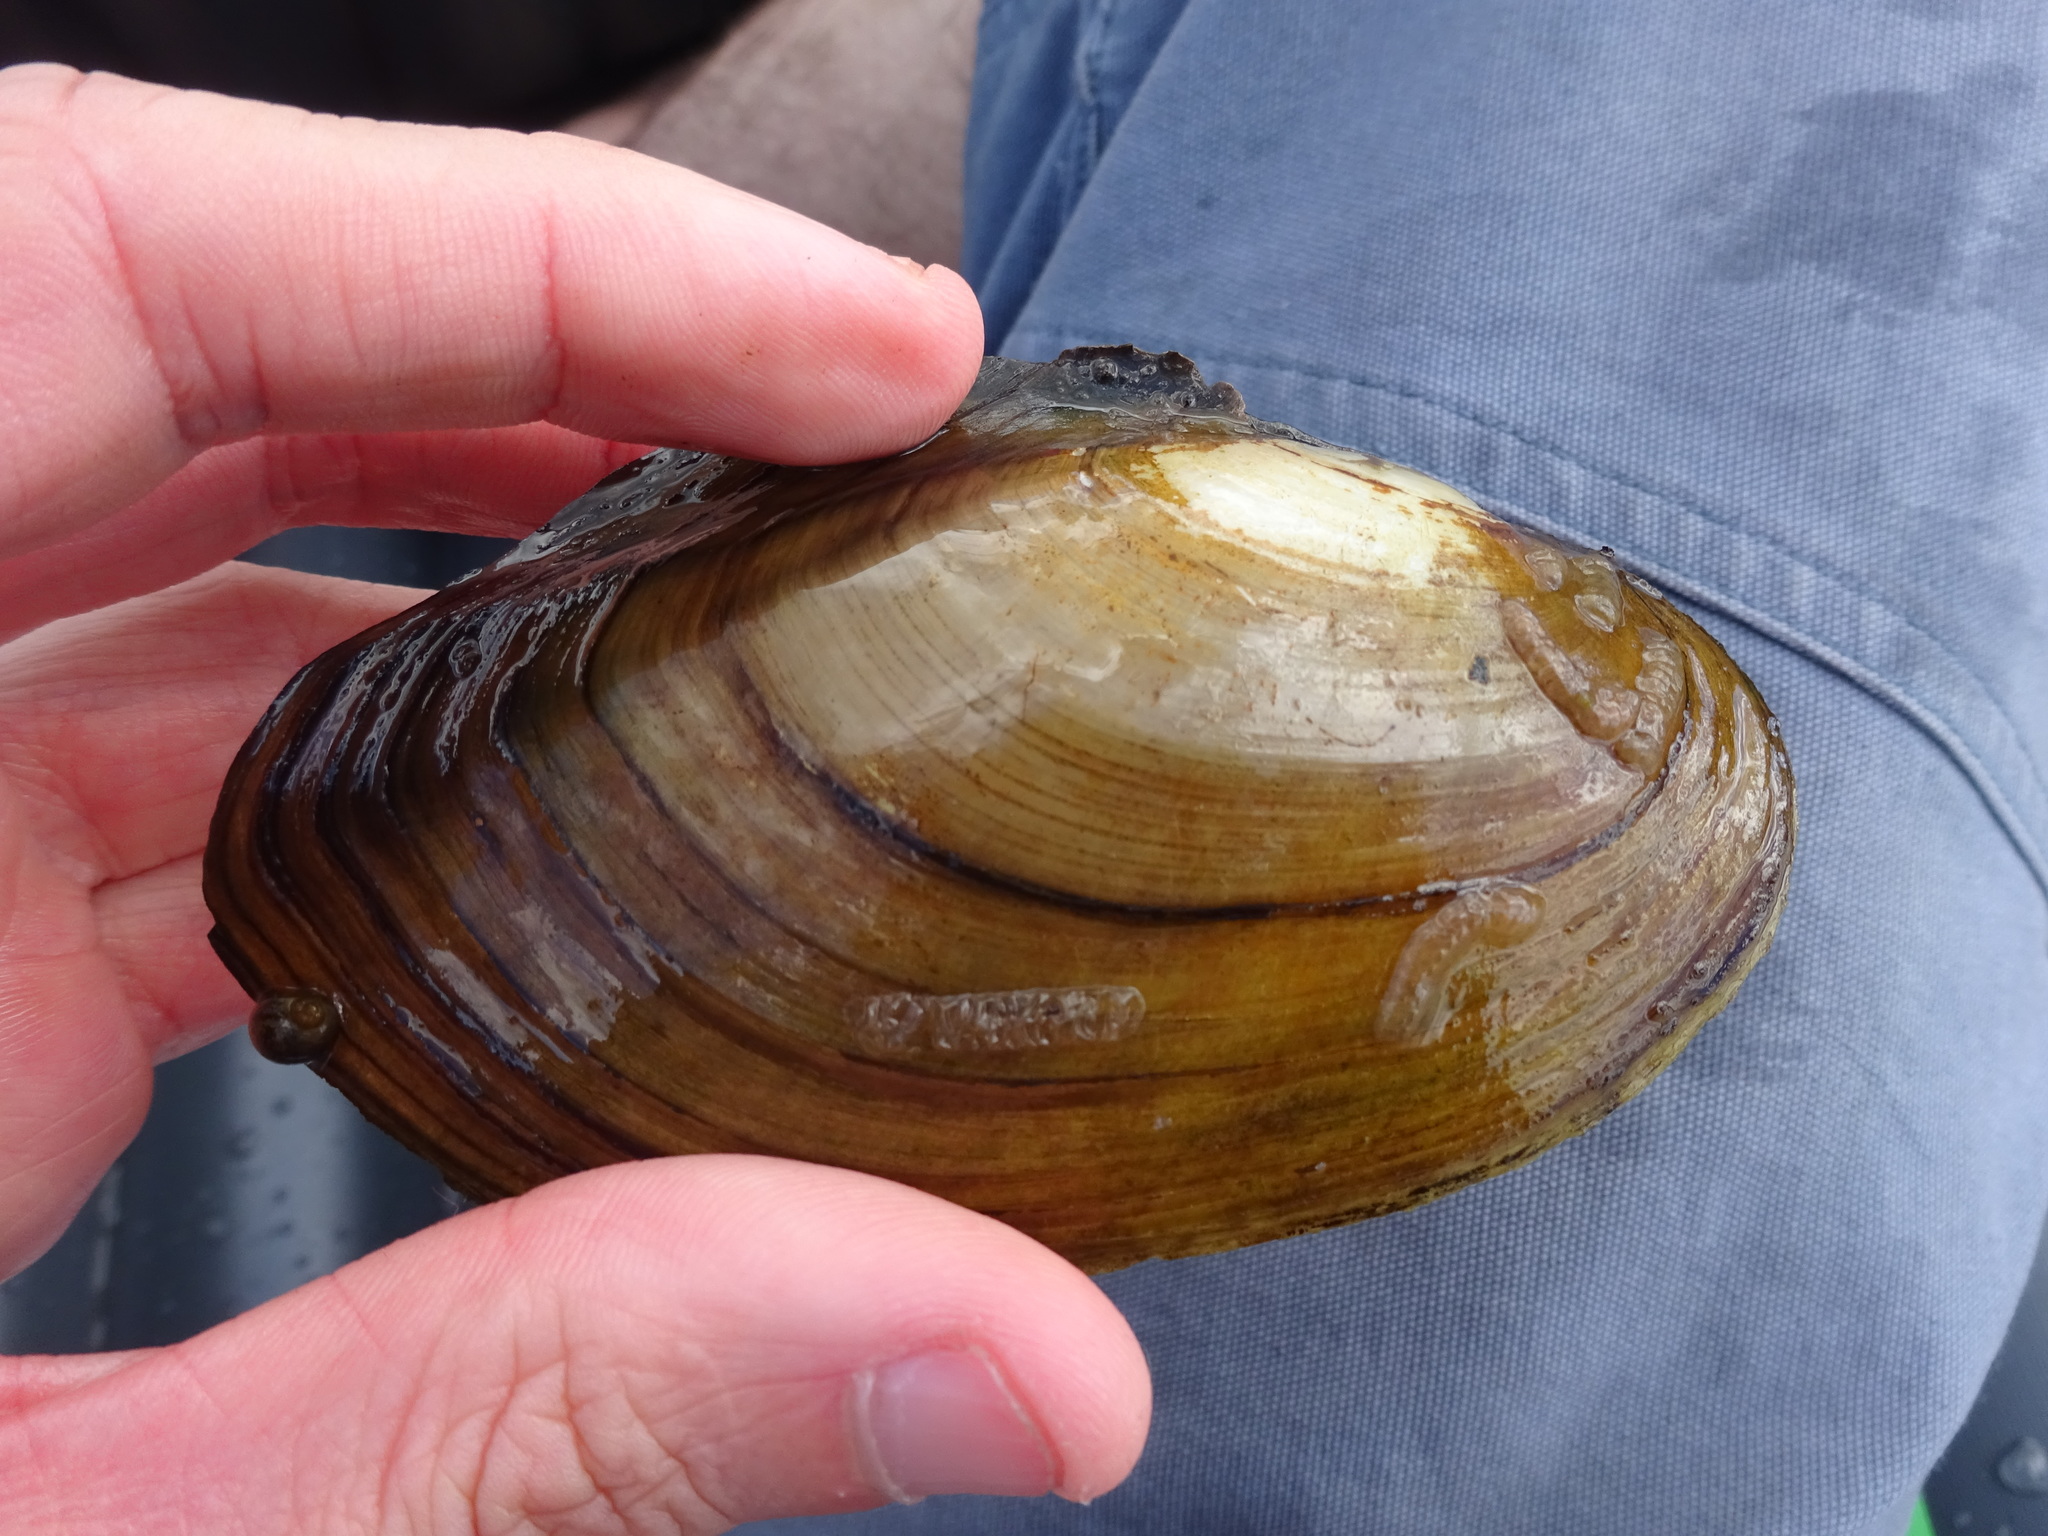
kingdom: Animalia
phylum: Mollusca
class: Bivalvia
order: Unionida
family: Unionidae
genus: Anodonta
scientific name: Anodonta anatina
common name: Duck mussel
